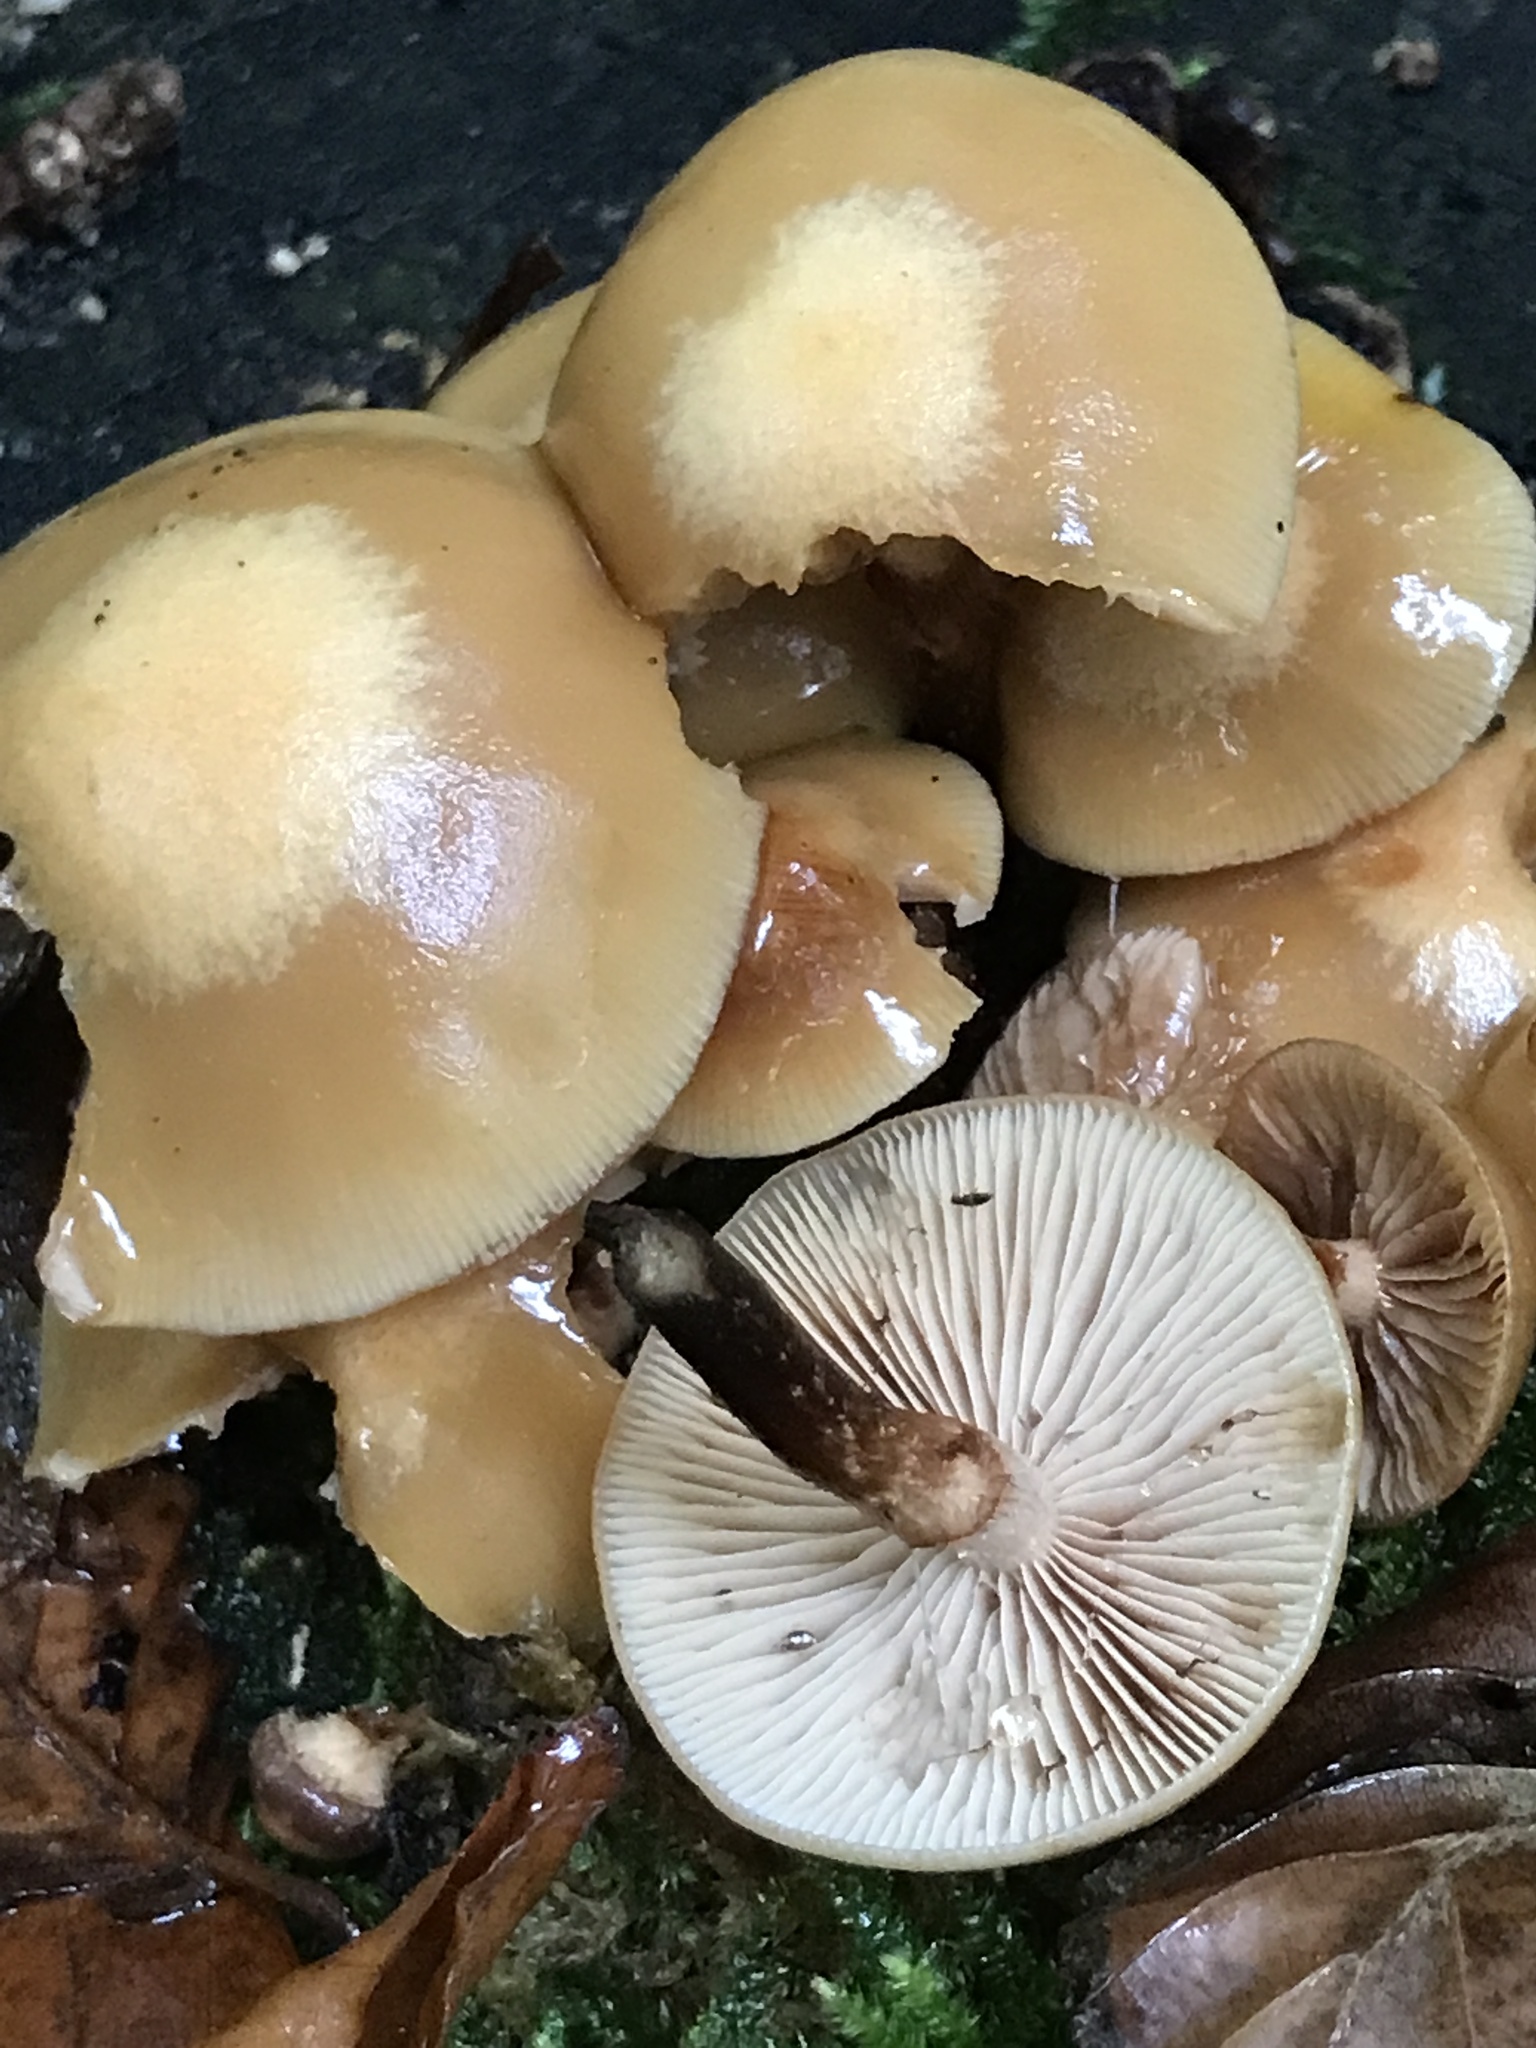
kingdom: Fungi
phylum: Basidiomycota
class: Agaricomycetes
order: Agaricales
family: Strophariaceae
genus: Kuehneromyces
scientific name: Kuehneromyces mutabilis
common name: Sheathed woodtuft
